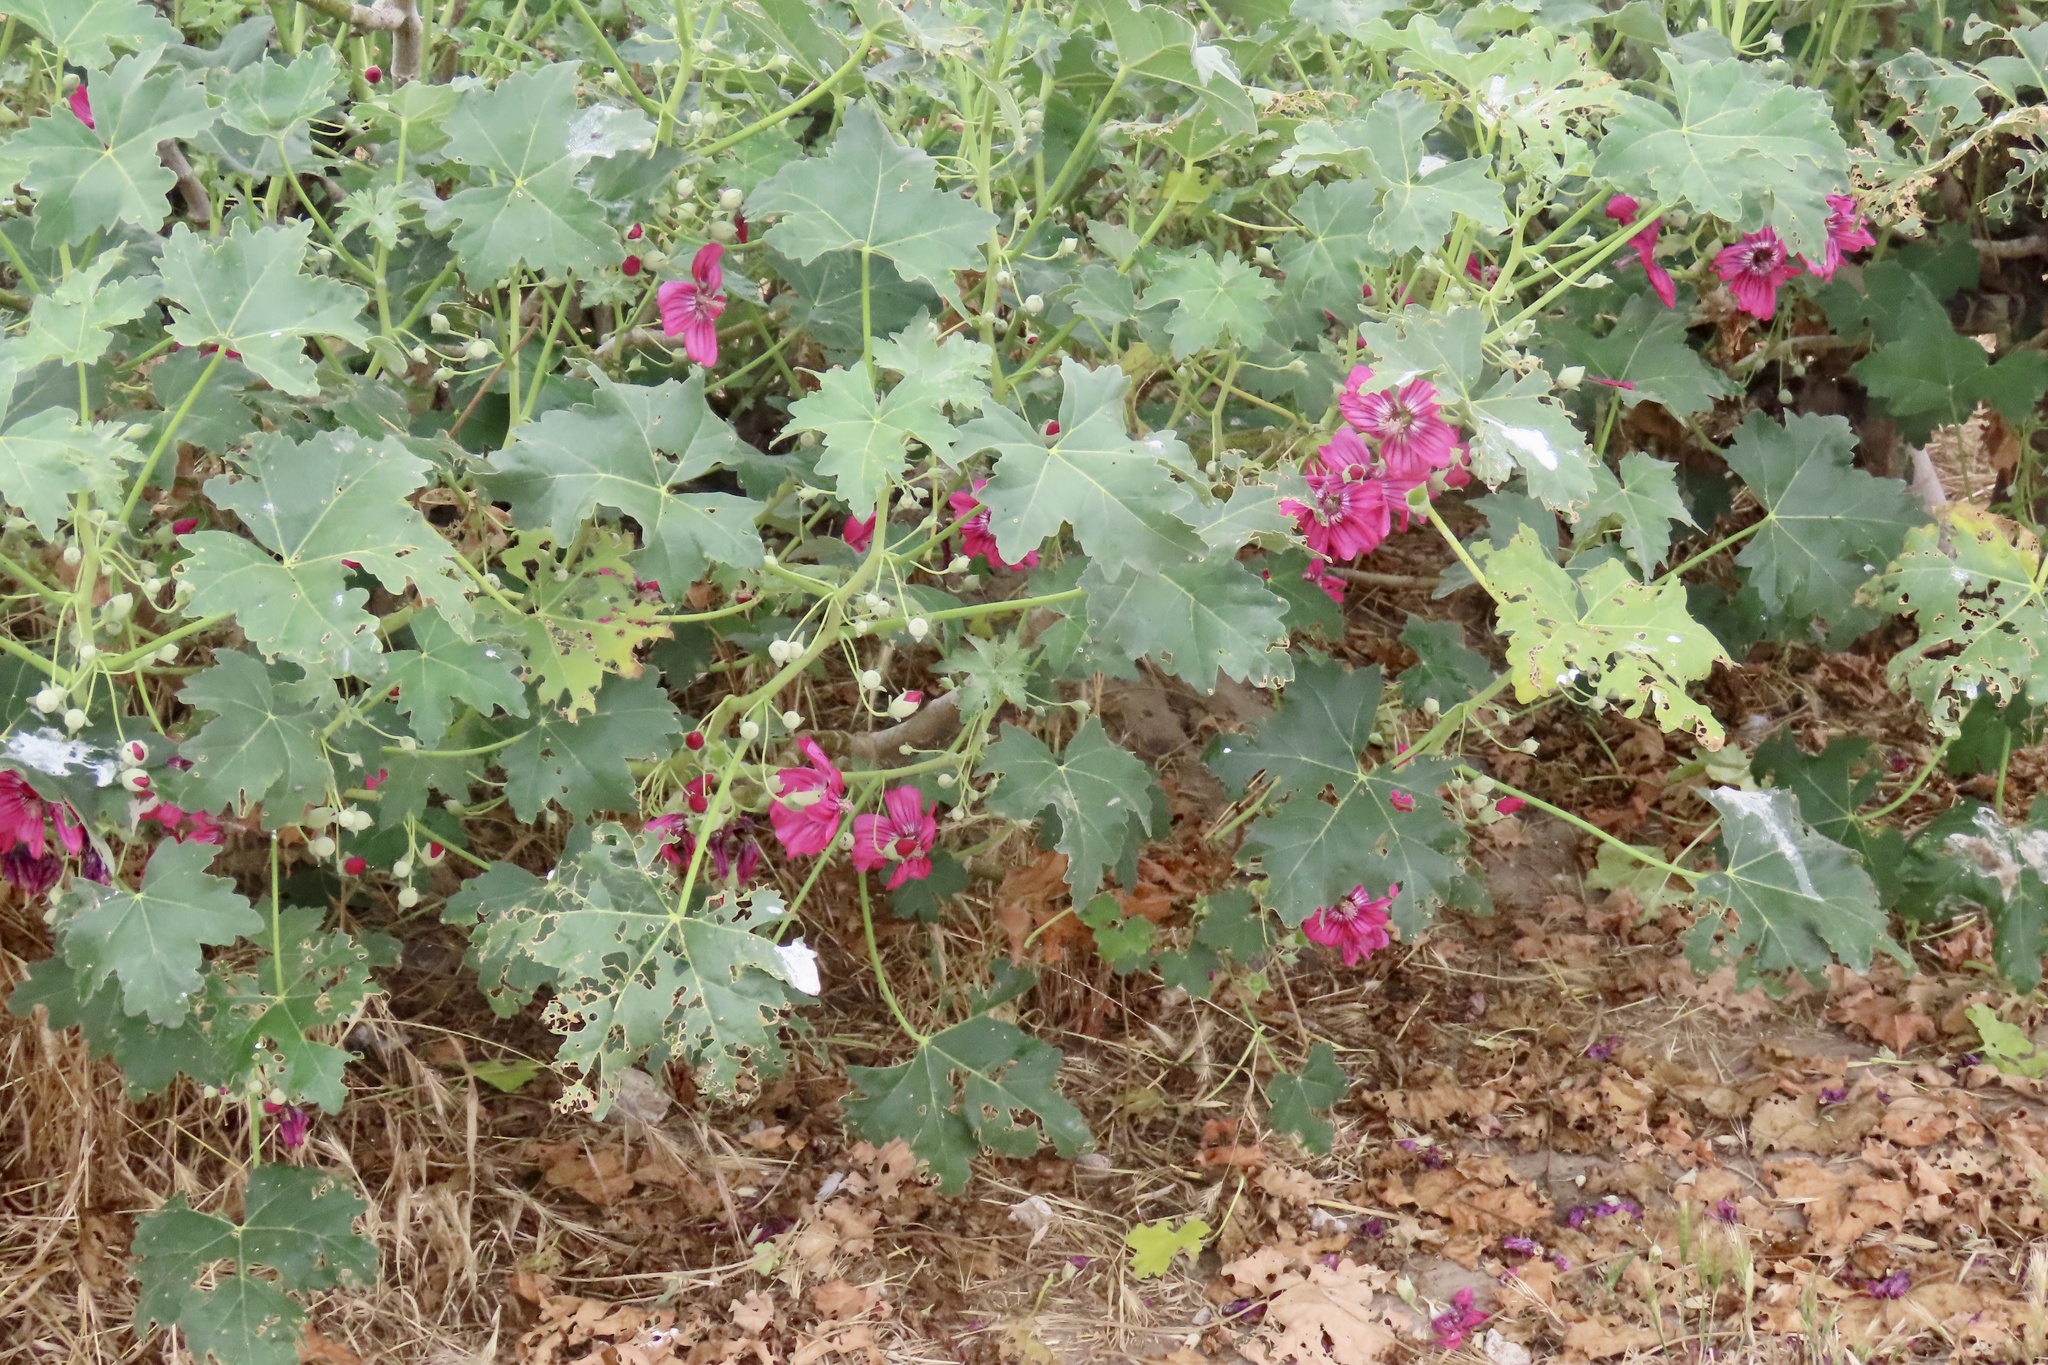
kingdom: Plantae
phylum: Tracheophyta
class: Magnoliopsida
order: Malvales
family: Malvaceae
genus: Malva
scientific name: Malva assurgentiflora
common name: Island mallow
